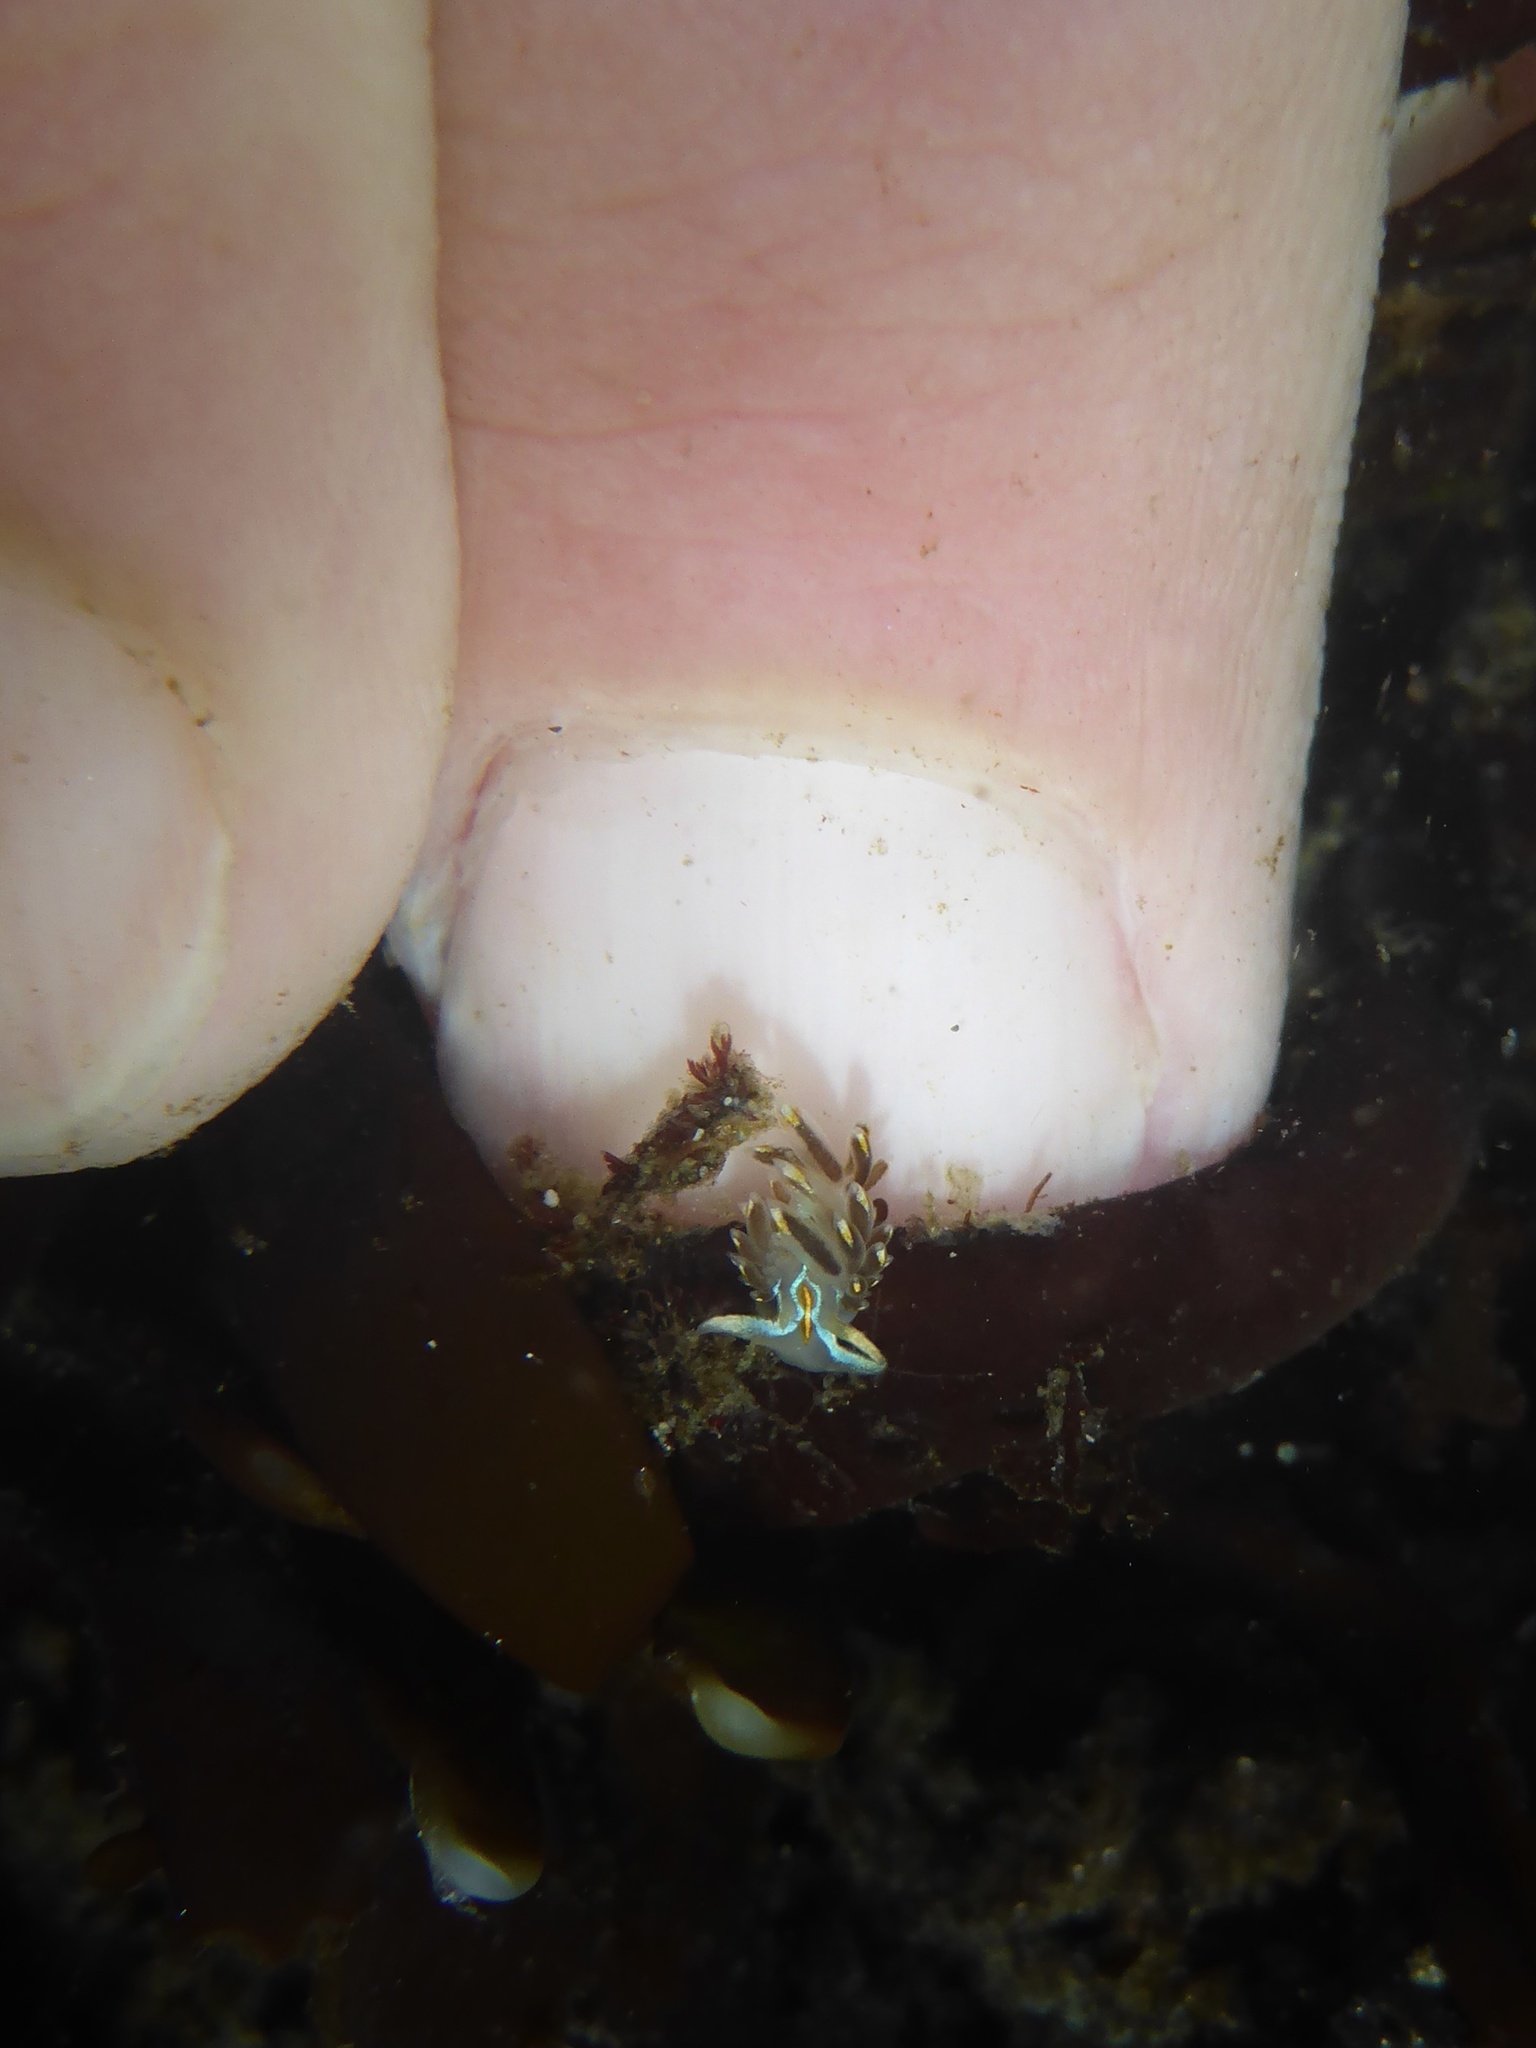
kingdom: Animalia
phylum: Mollusca
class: Gastropoda
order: Nudibranchia
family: Myrrhinidae
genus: Hermissenda
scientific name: Hermissenda opalescens
